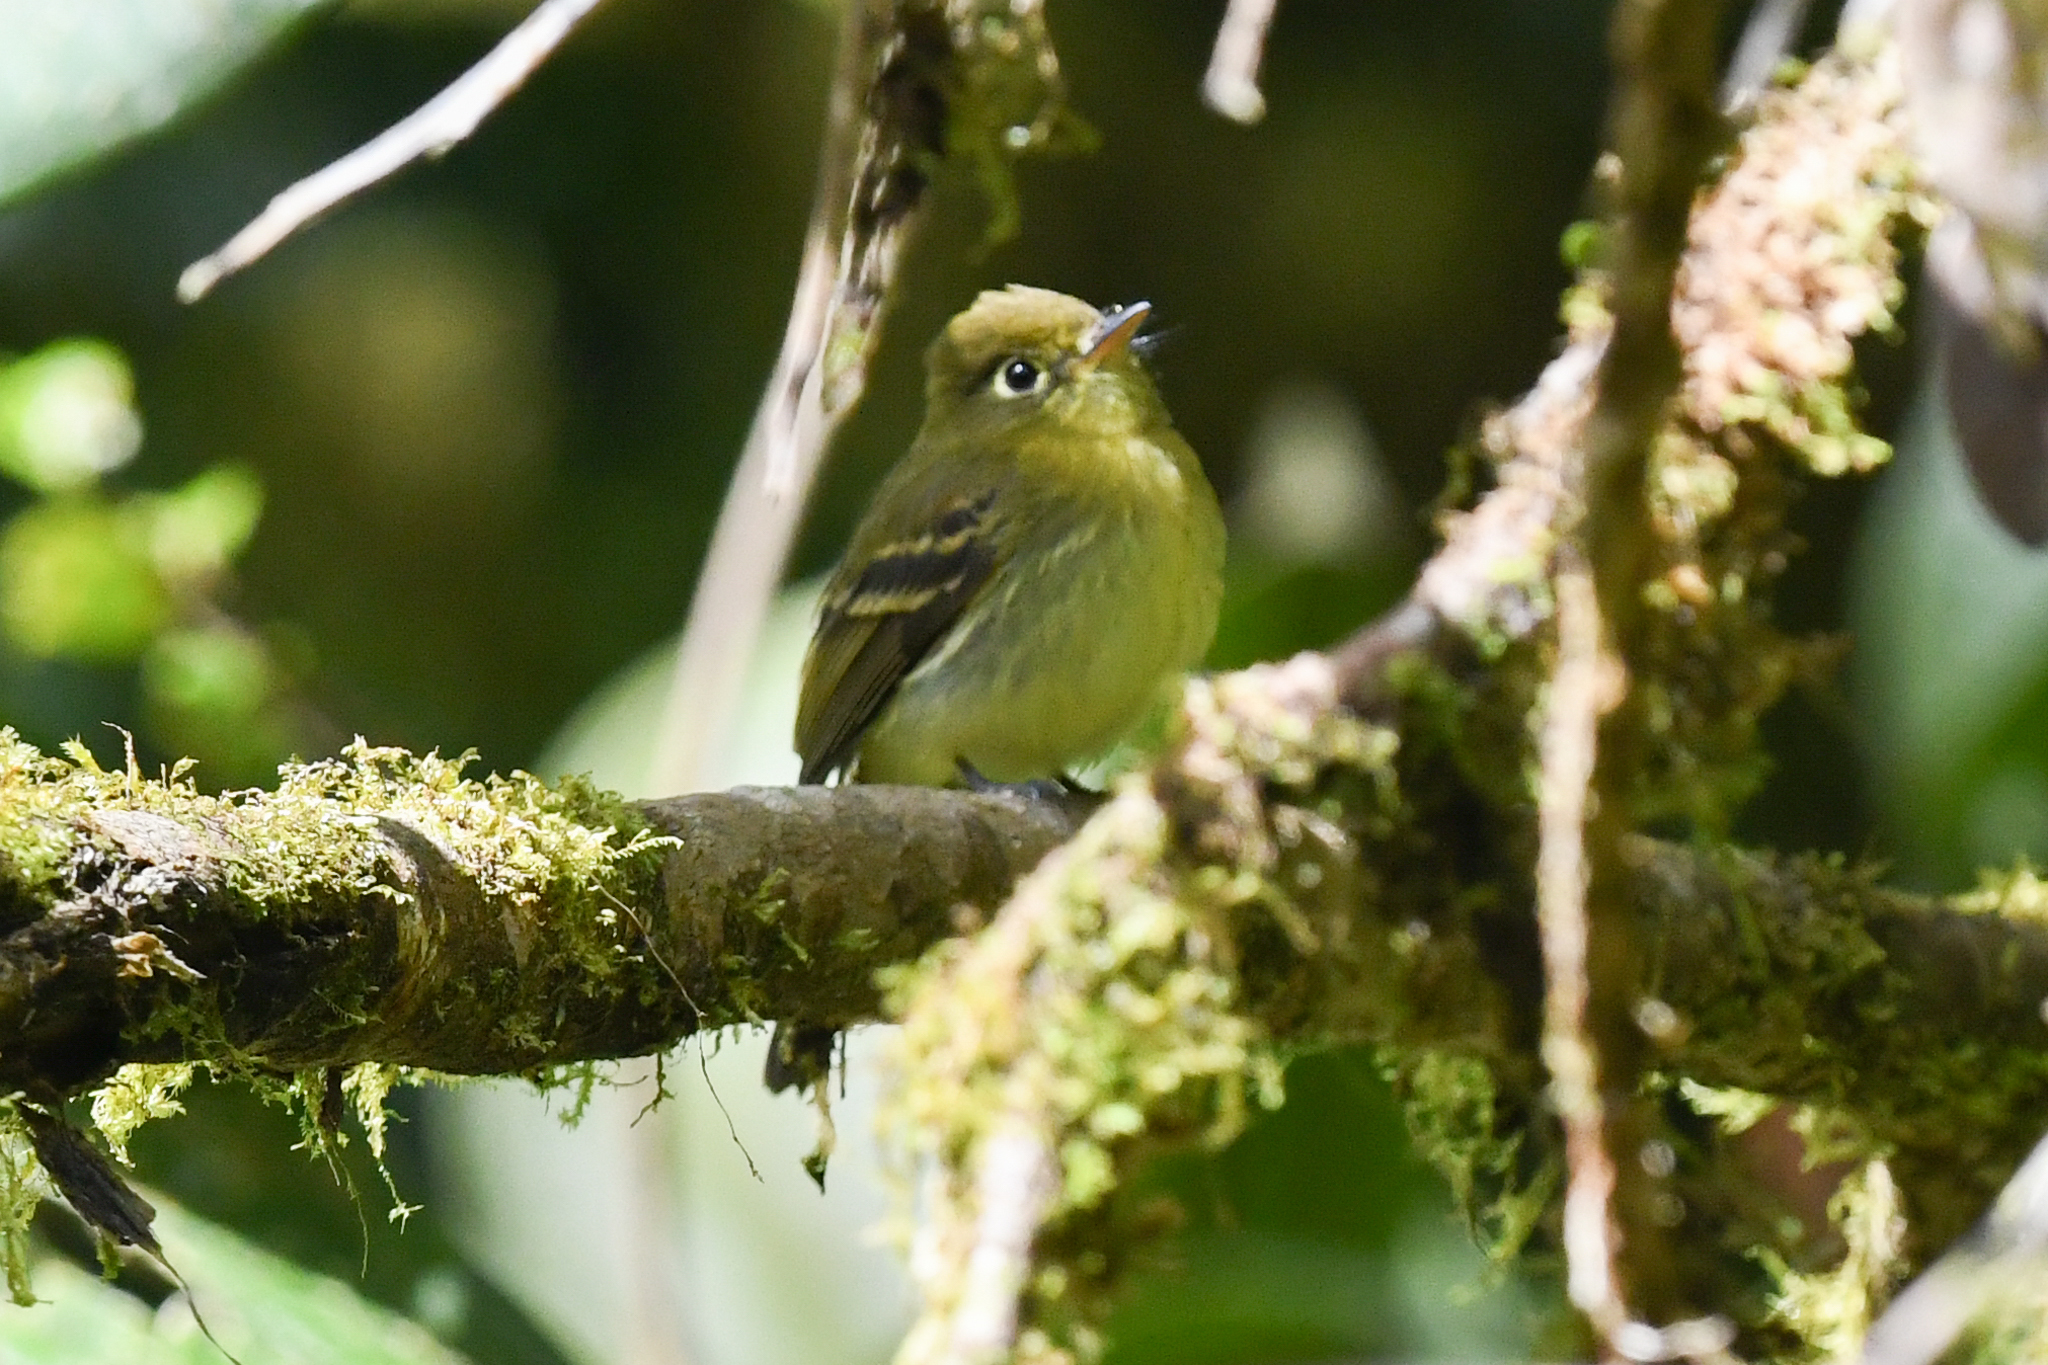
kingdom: Animalia
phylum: Chordata
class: Aves
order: Passeriformes
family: Tyrannidae
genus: Empidonax
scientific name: Empidonax flavescens
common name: Yellowish flycatcher
